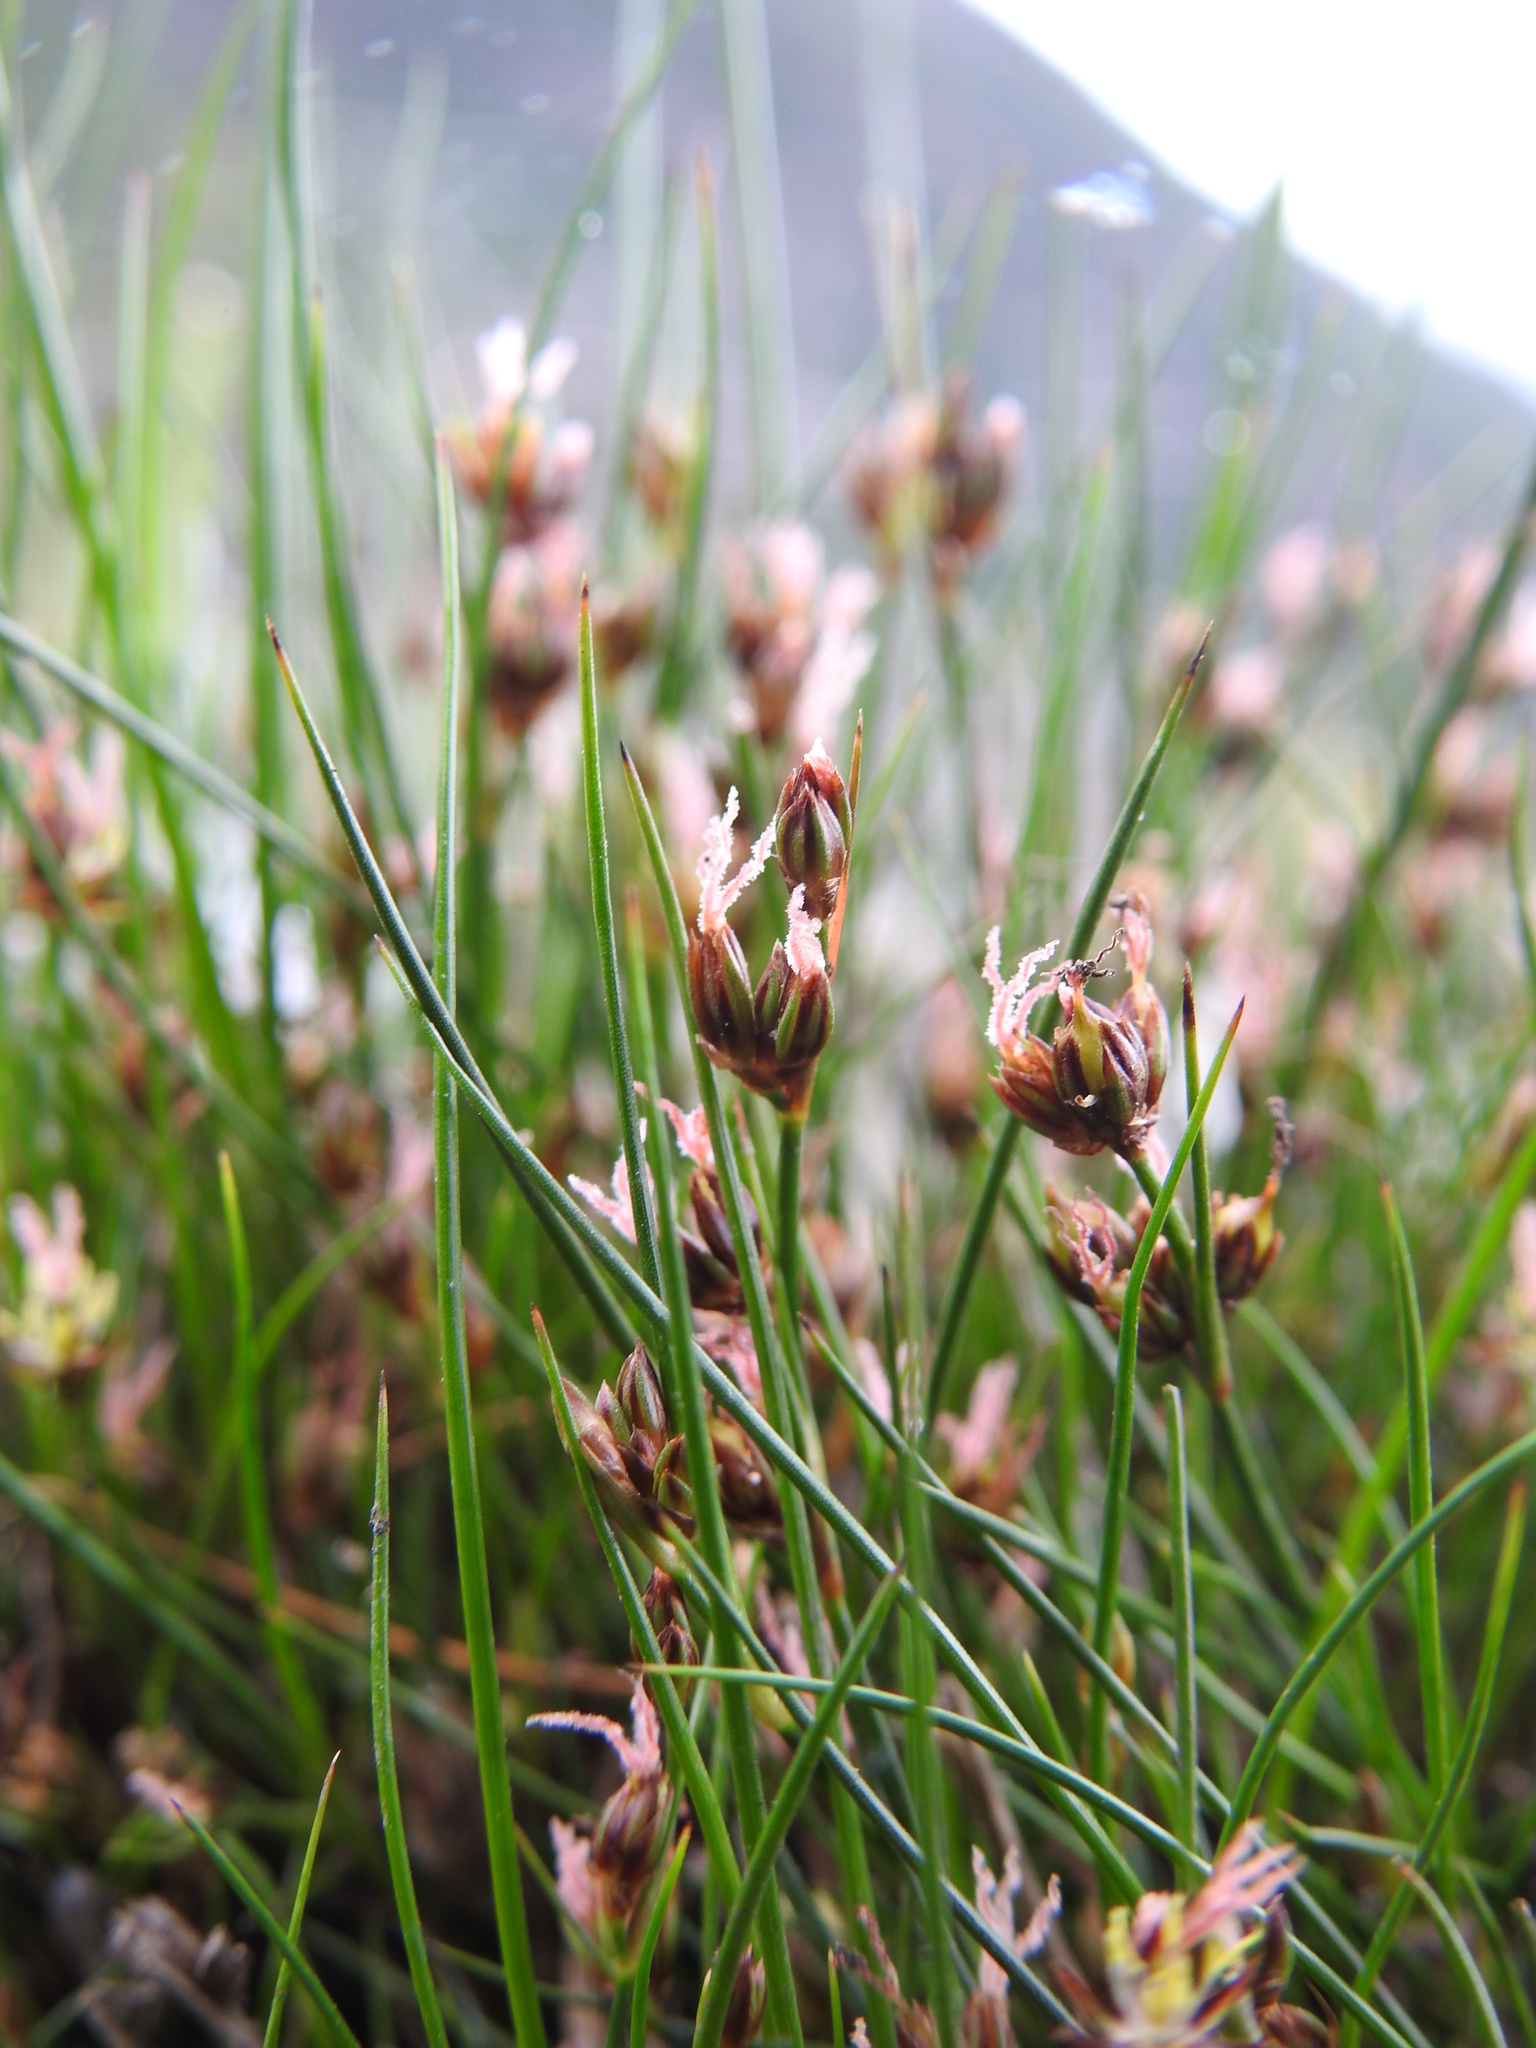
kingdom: Plantae
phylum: Tracheophyta
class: Liliopsida
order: Poales
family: Juncaceae
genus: Juncus
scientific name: Juncus scheuchzerioides
